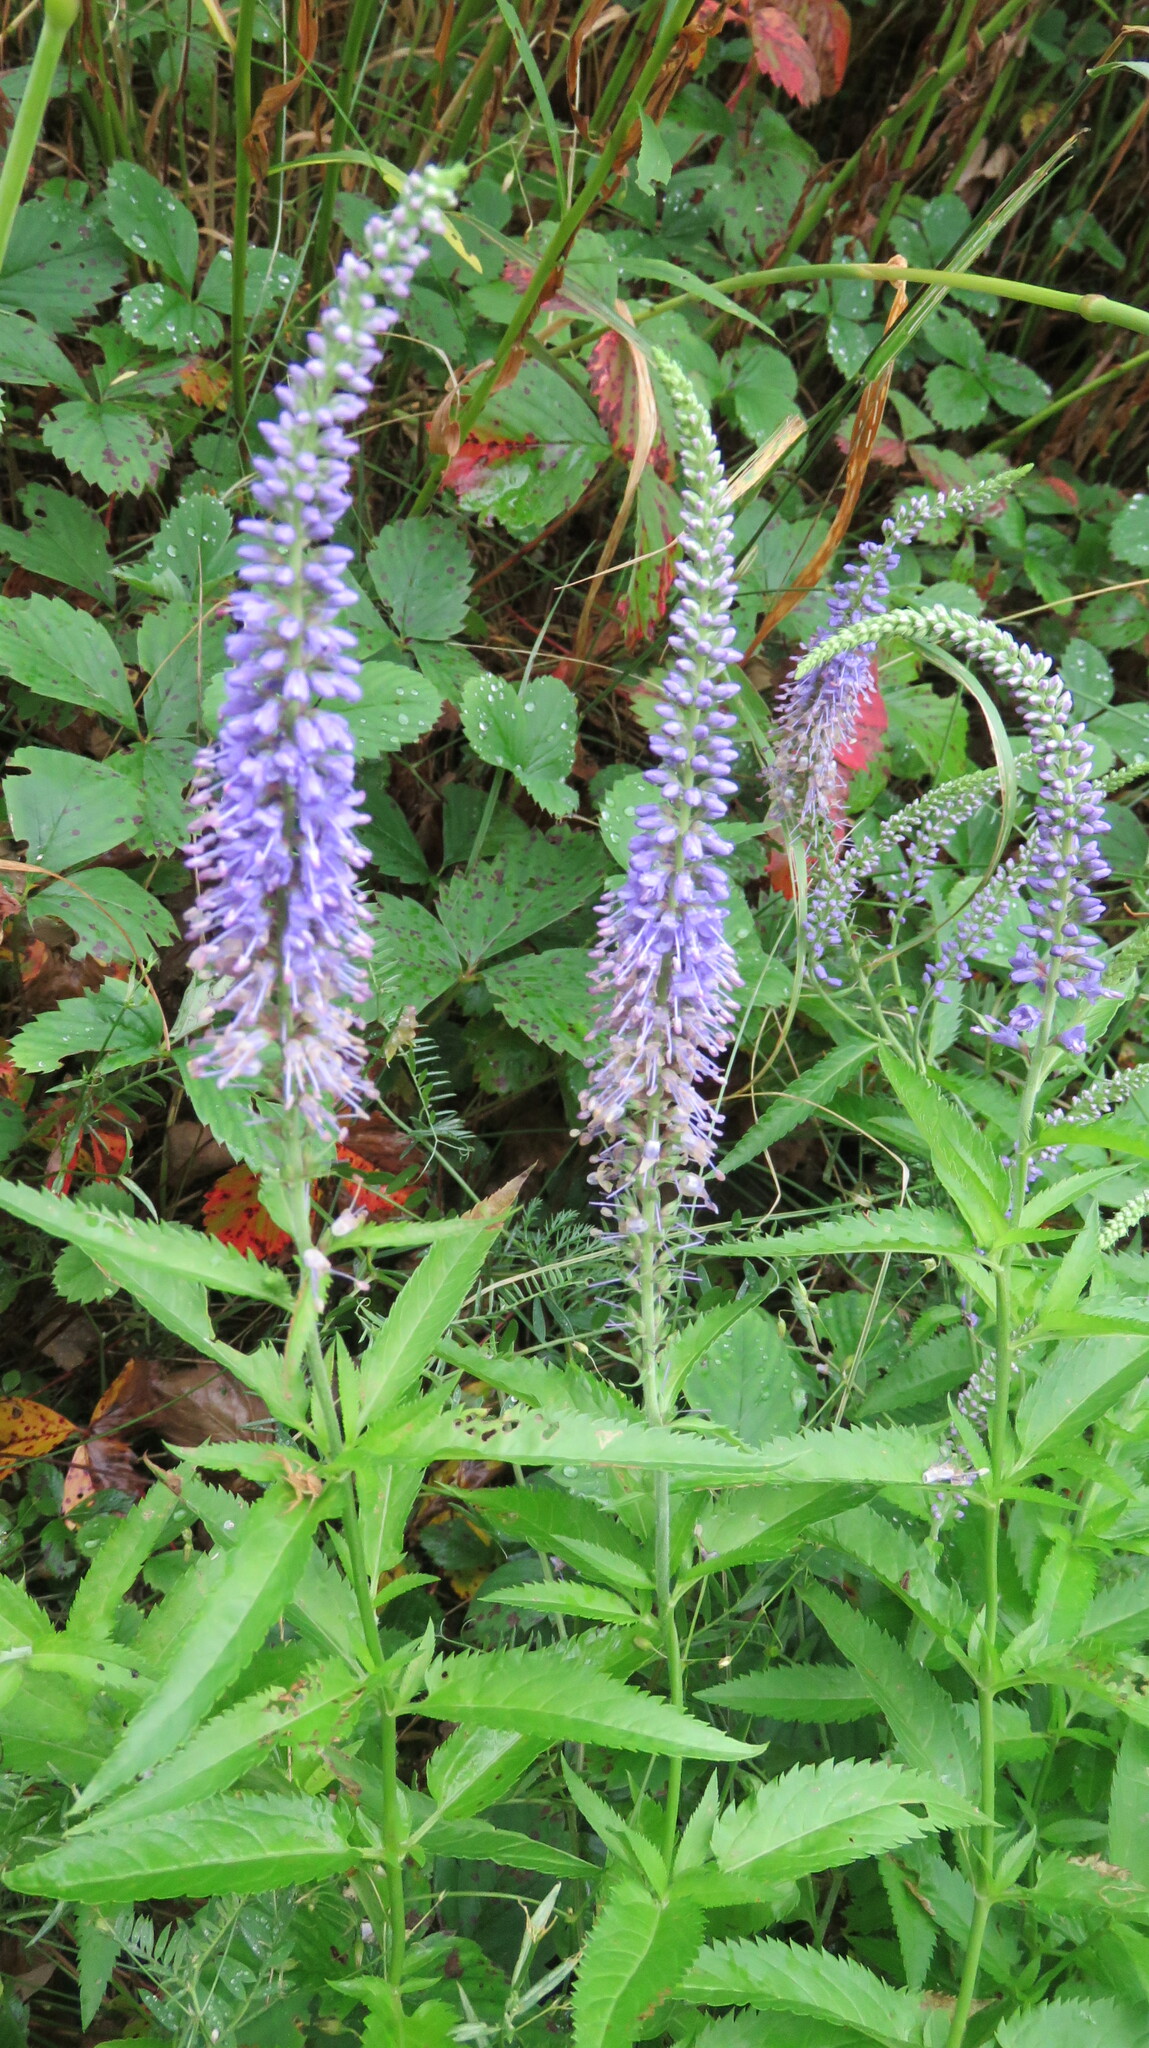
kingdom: Plantae
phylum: Tracheophyta
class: Magnoliopsida
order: Lamiales
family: Plantaginaceae
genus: Veronica
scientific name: Veronica longifolia
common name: Garden speedwell
